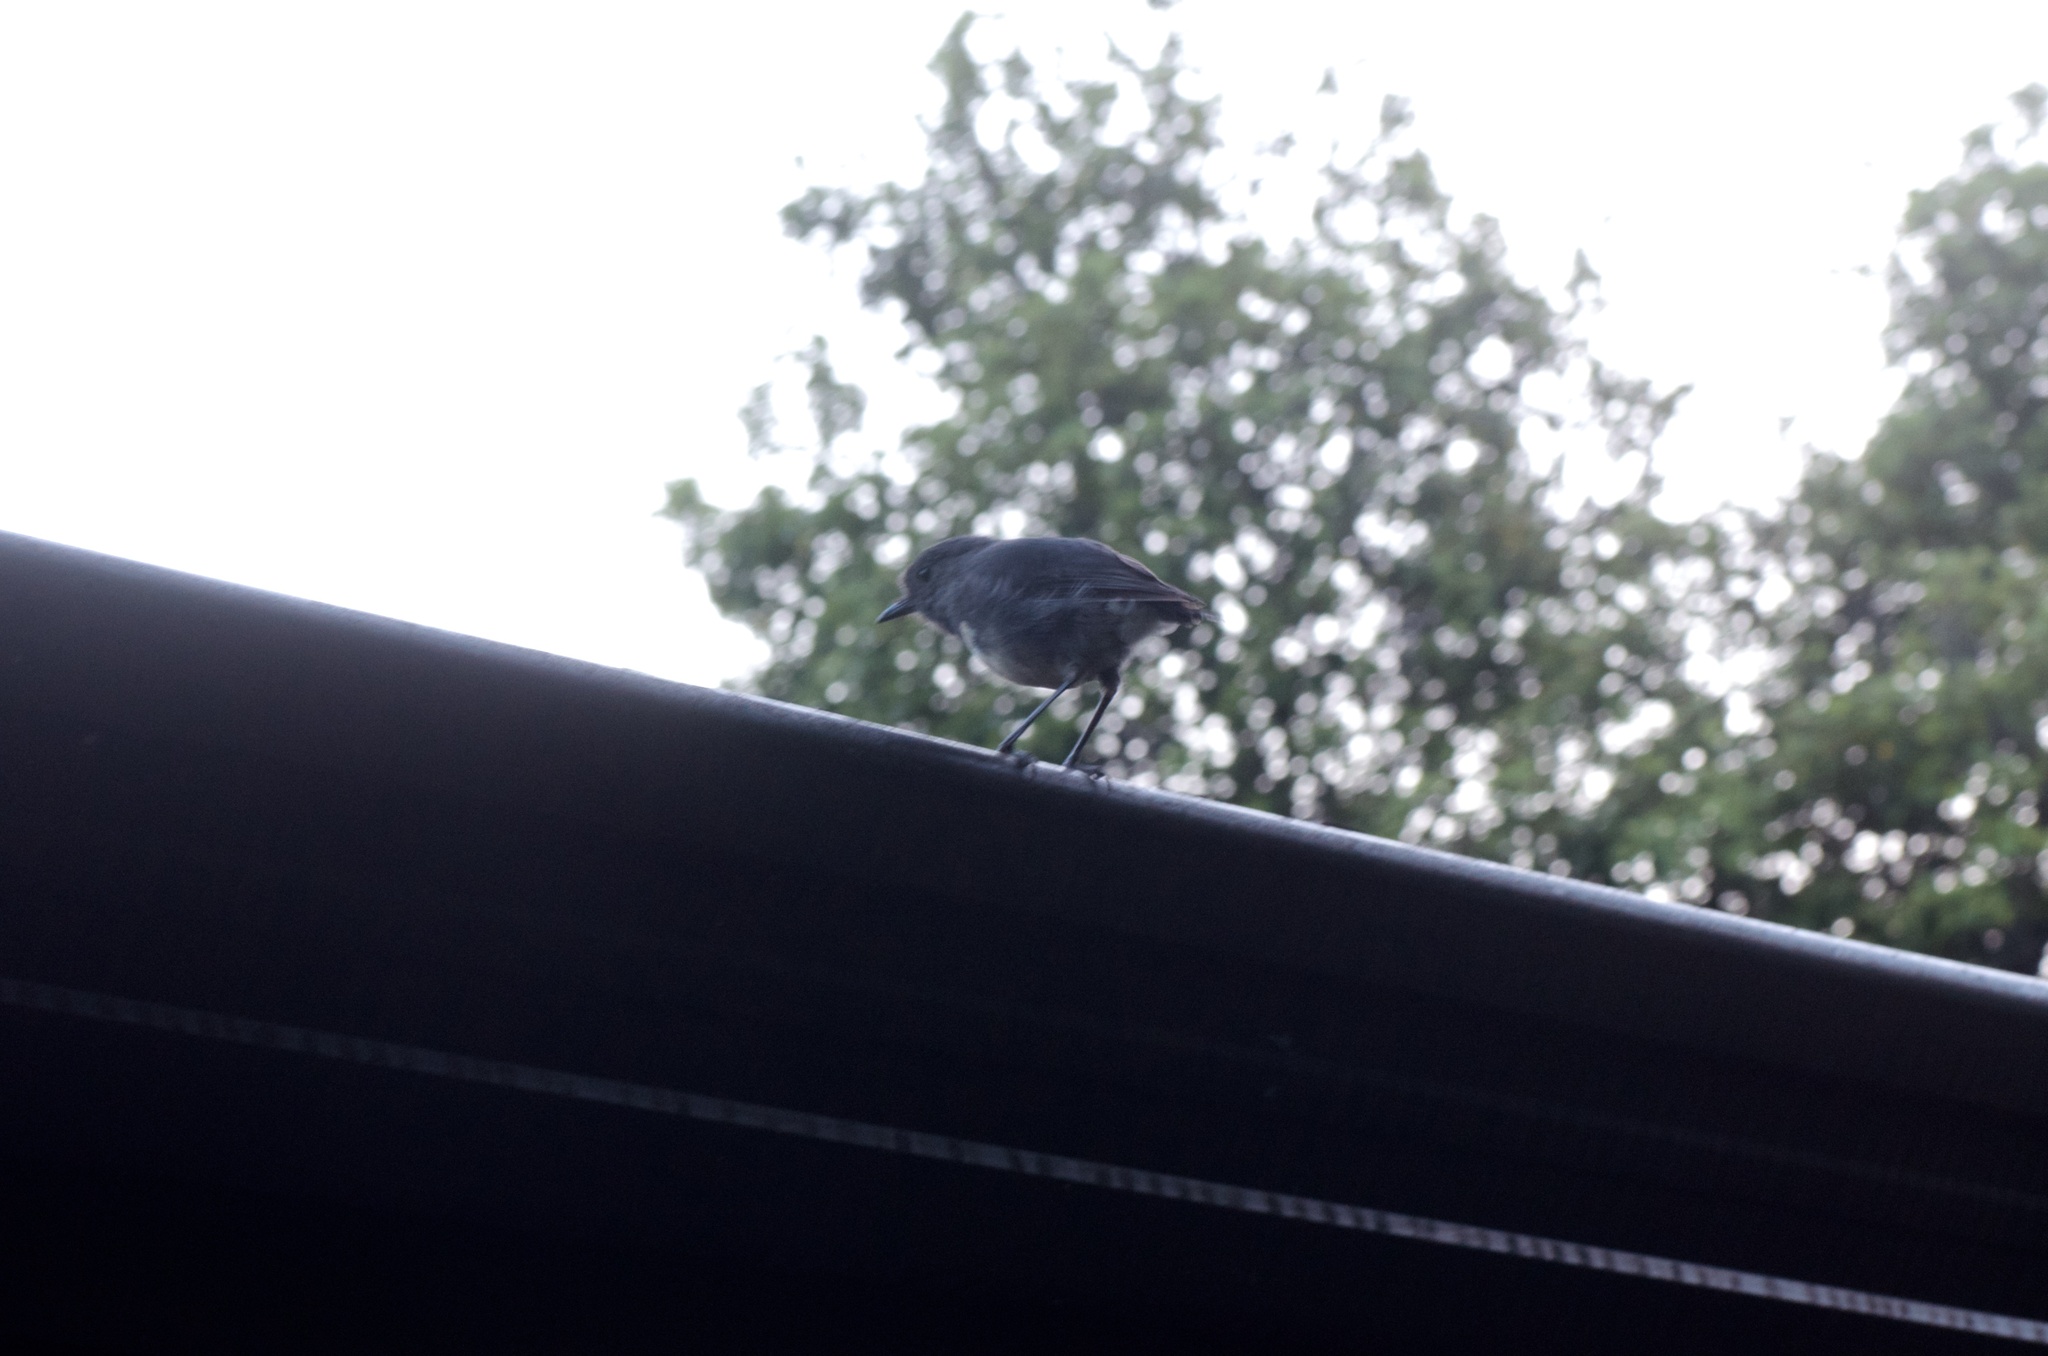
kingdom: Animalia
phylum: Chordata
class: Aves
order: Passeriformes
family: Petroicidae
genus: Petroica
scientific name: Petroica australis
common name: New zealand robin
